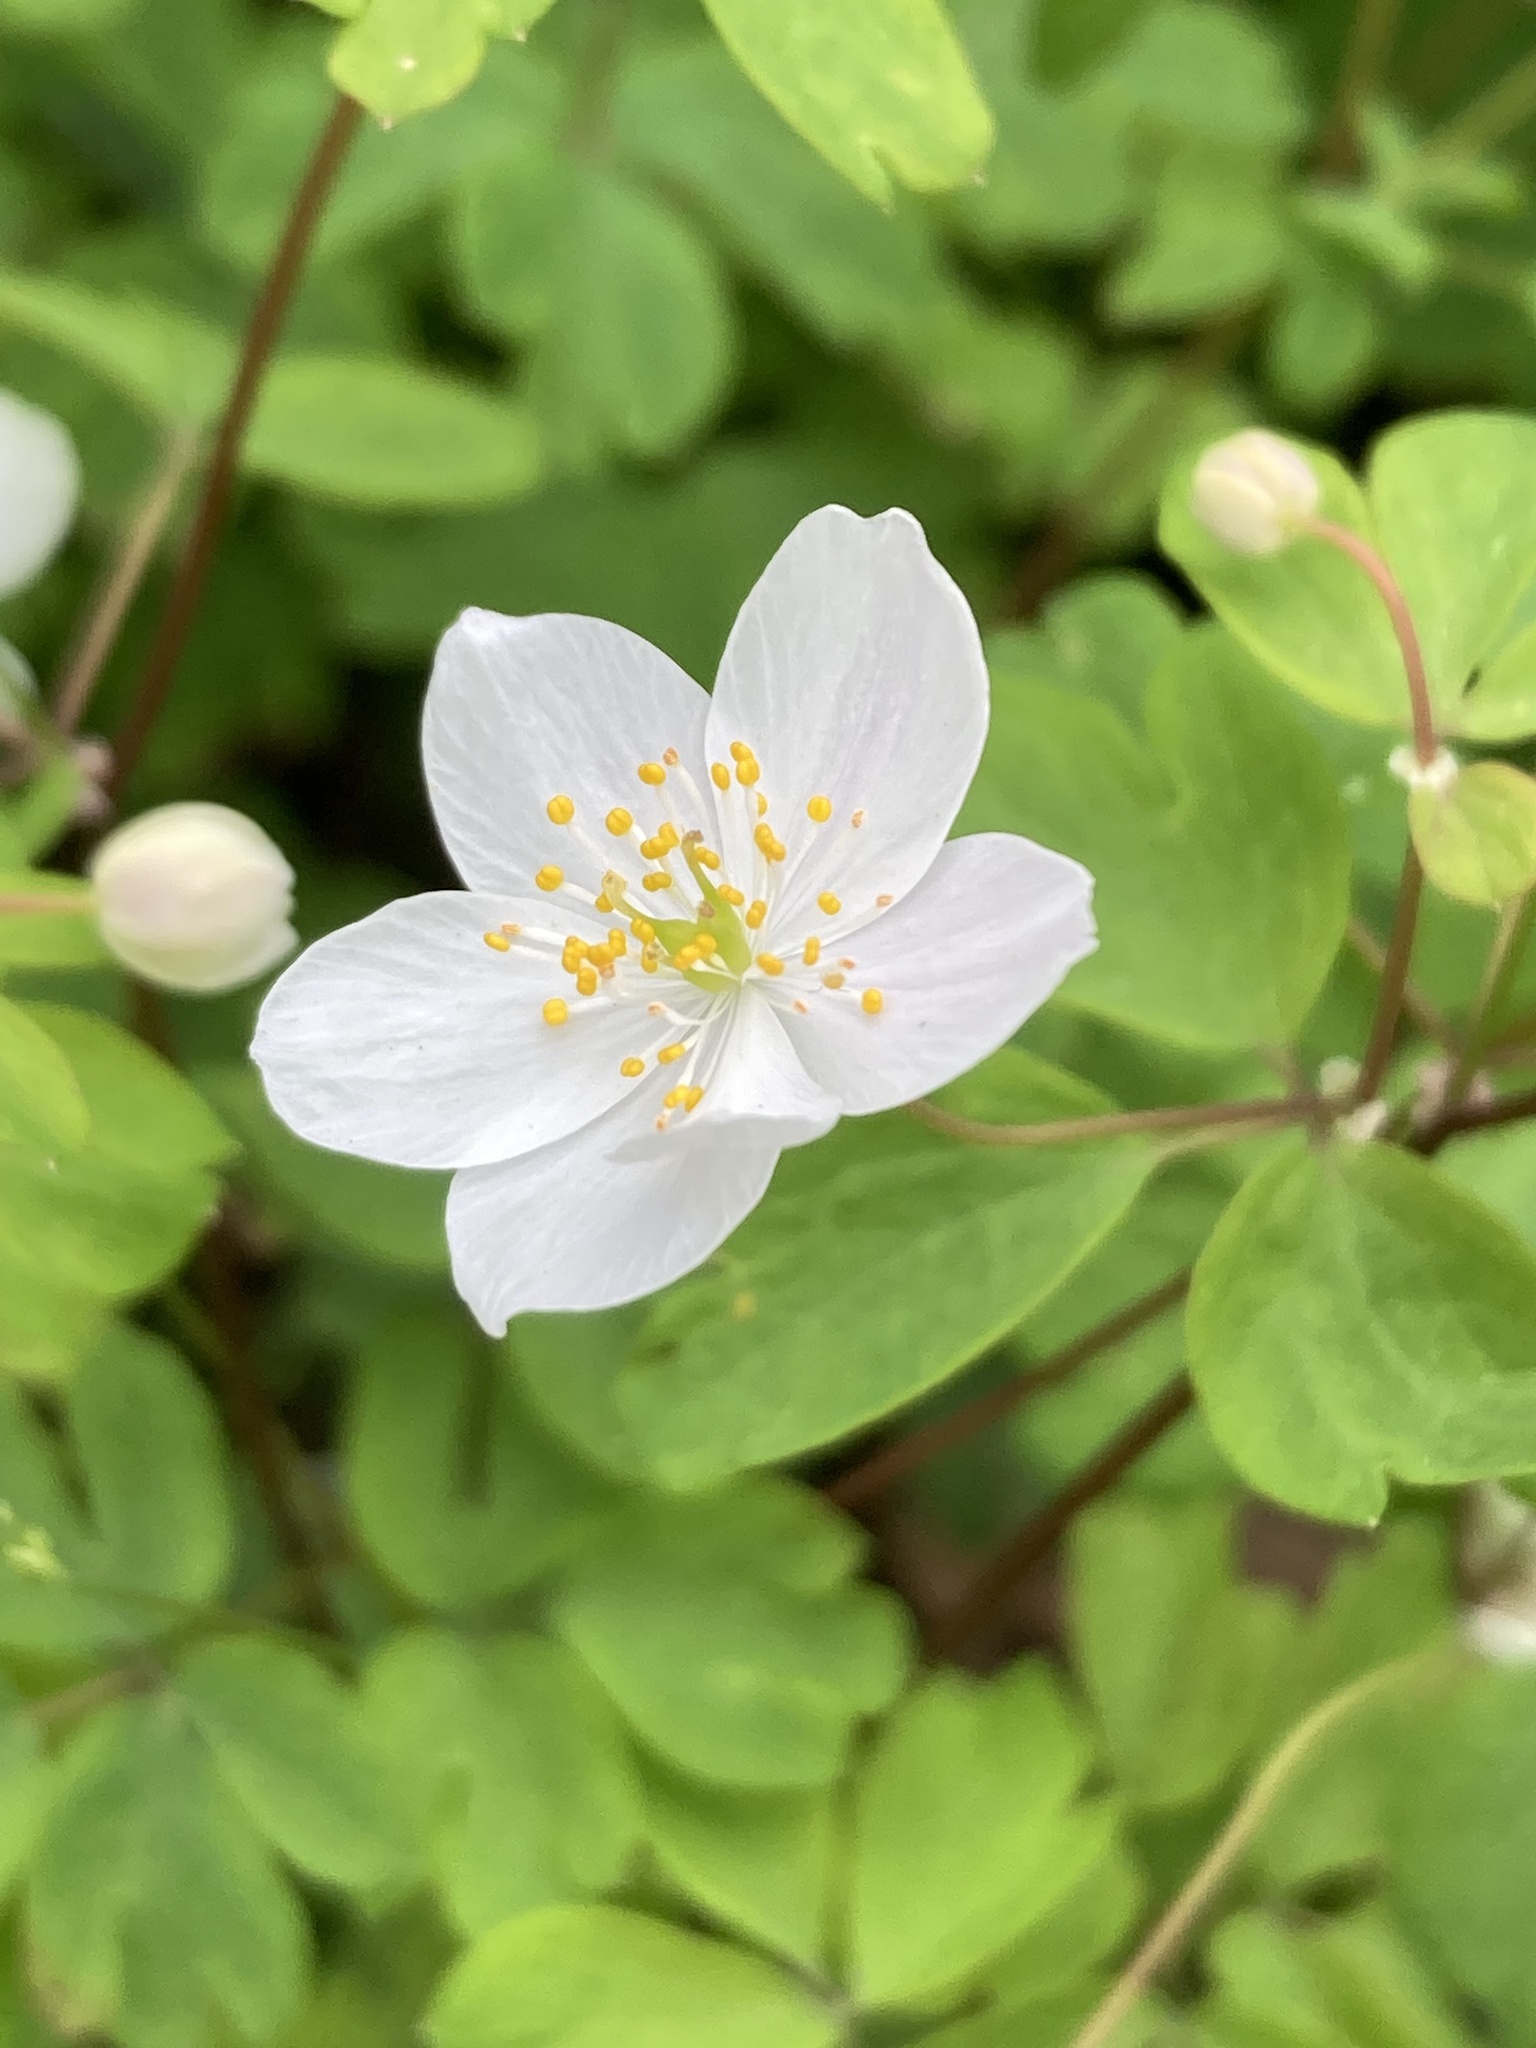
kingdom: Plantae
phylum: Tracheophyta
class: Magnoliopsida
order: Ranunculales
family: Ranunculaceae
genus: Enemion
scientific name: Enemion biternatum
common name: Eastern false rue-anemone
